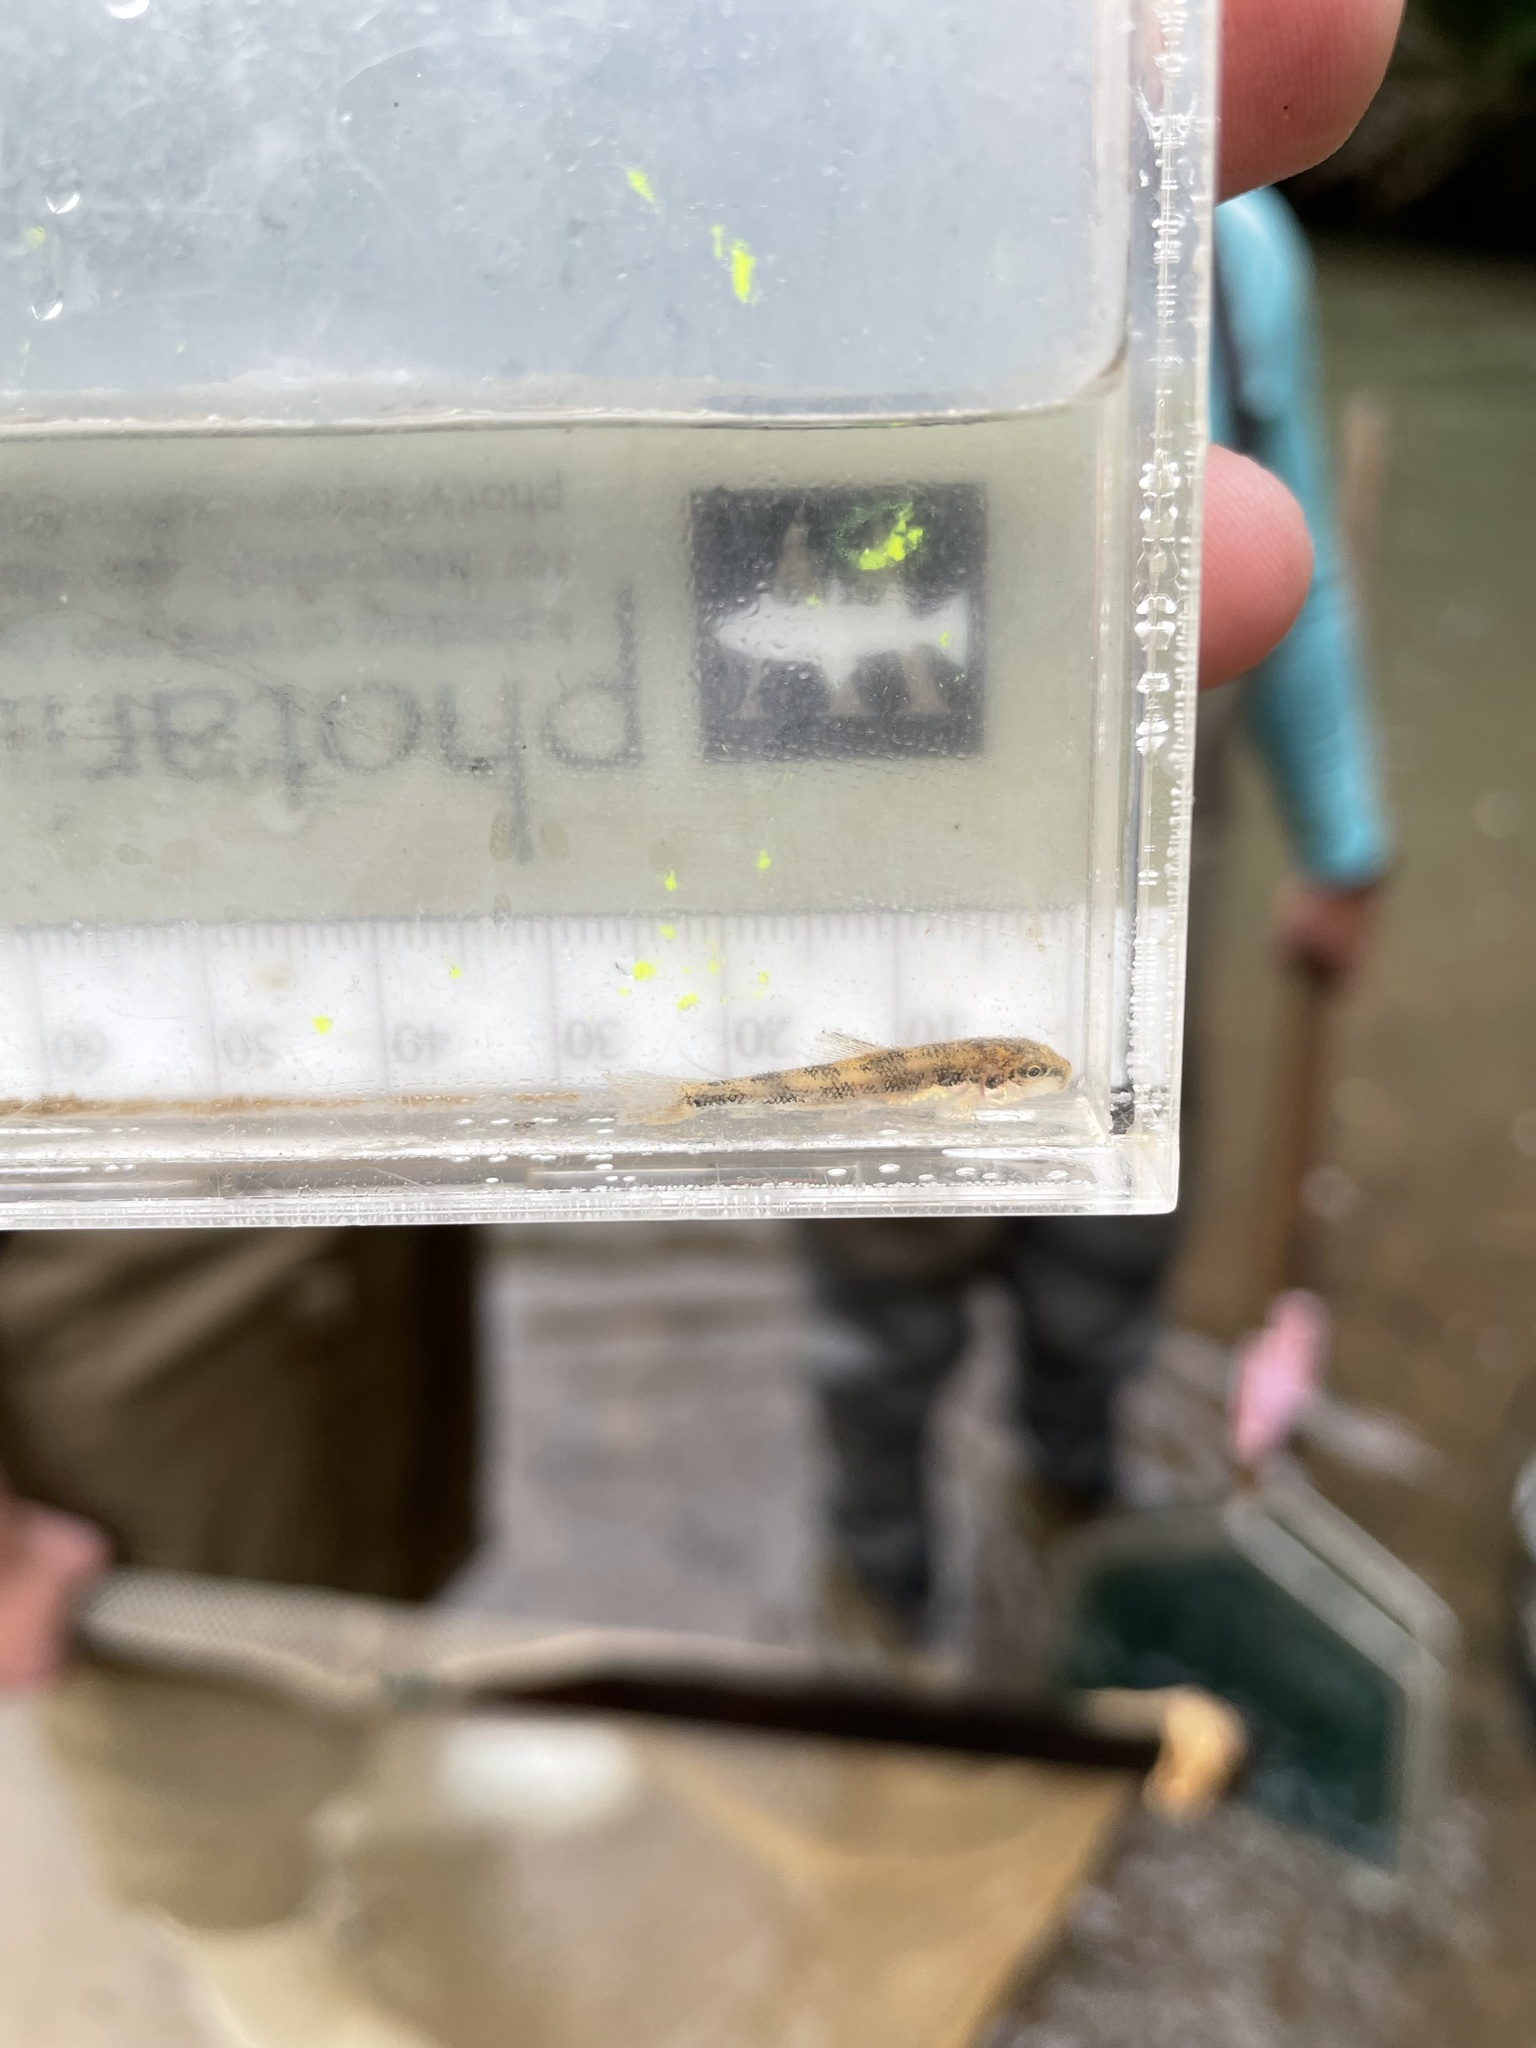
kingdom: Animalia
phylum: Chordata
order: Cypriniformes
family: Catostomidae
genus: Hypentelium
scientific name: Hypentelium etowanum
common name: Alabama hog sucker
